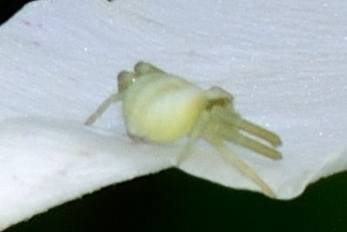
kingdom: Animalia
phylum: Arthropoda
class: Arachnida
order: Araneae
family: Thomisidae
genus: Misumena
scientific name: Misumena vatia
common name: Goldenrod crab spider
